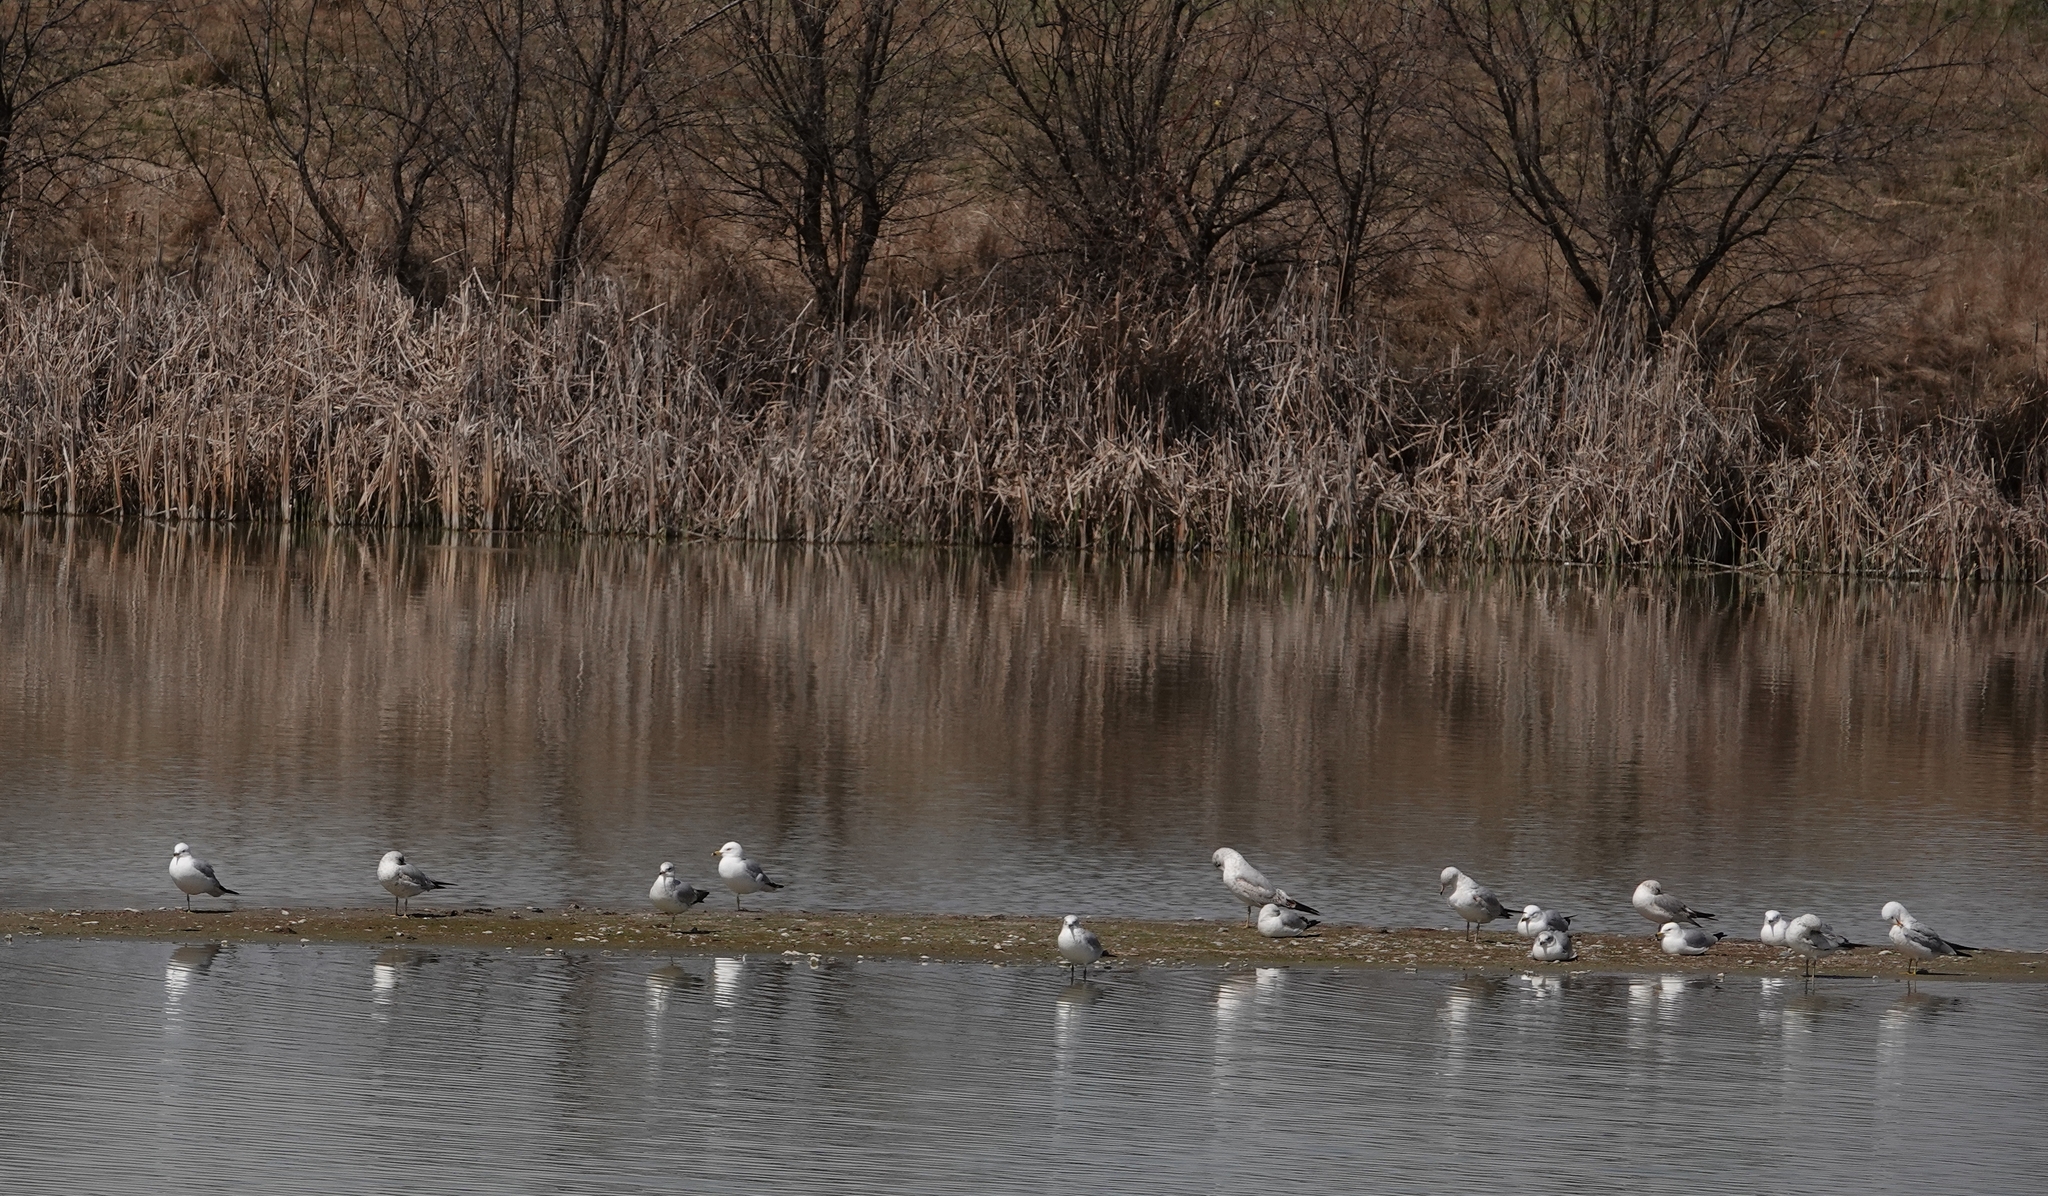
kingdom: Animalia
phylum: Chordata
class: Aves
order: Charadriiformes
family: Laridae
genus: Larus
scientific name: Larus delawarensis
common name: Ring-billed gull
